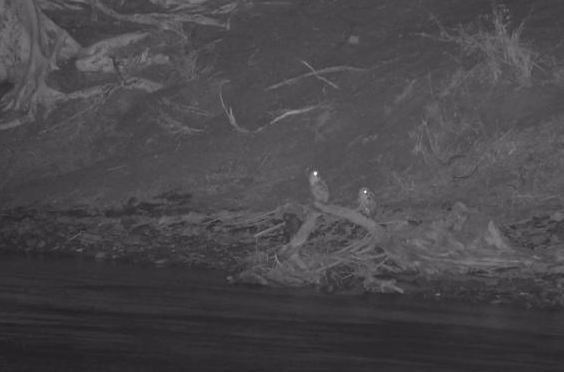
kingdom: Animalia
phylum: Chordata
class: Aves
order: Strigiformes
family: Strigidae
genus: Scotopelia
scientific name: Scotopelia peli
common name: Pel's fishing owl
